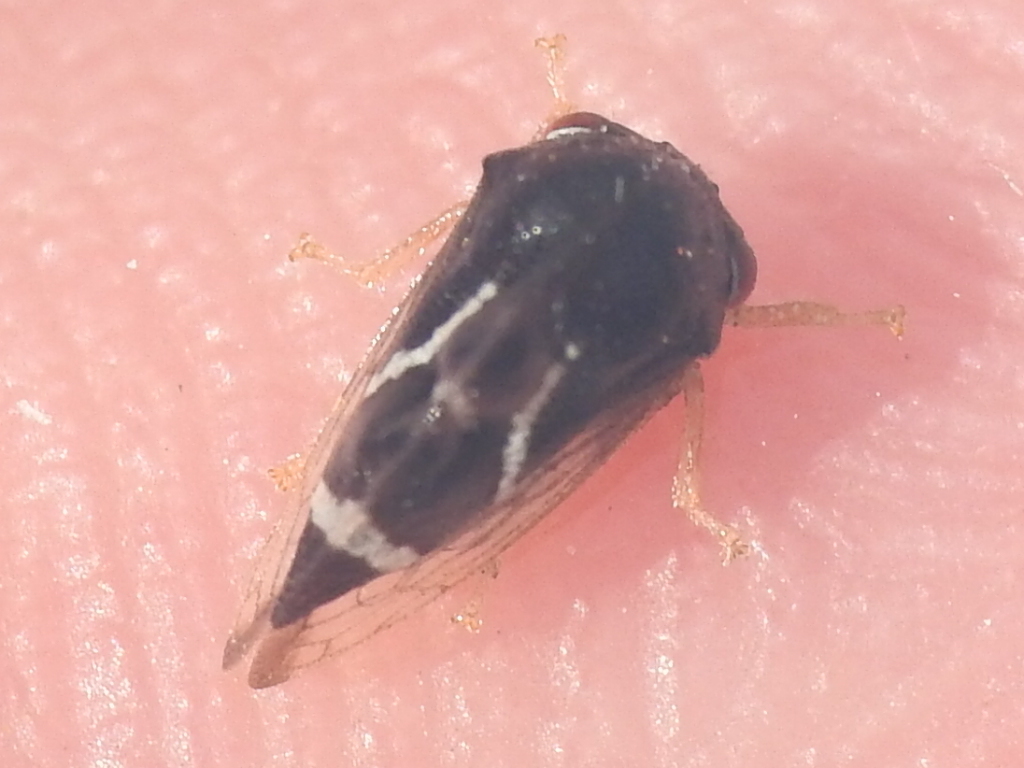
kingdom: Animalia
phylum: Arthropoda
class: Insecta
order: Hemiptera
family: Membracidae
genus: Cyrtolobus
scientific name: Cyrtolobus ovatus
